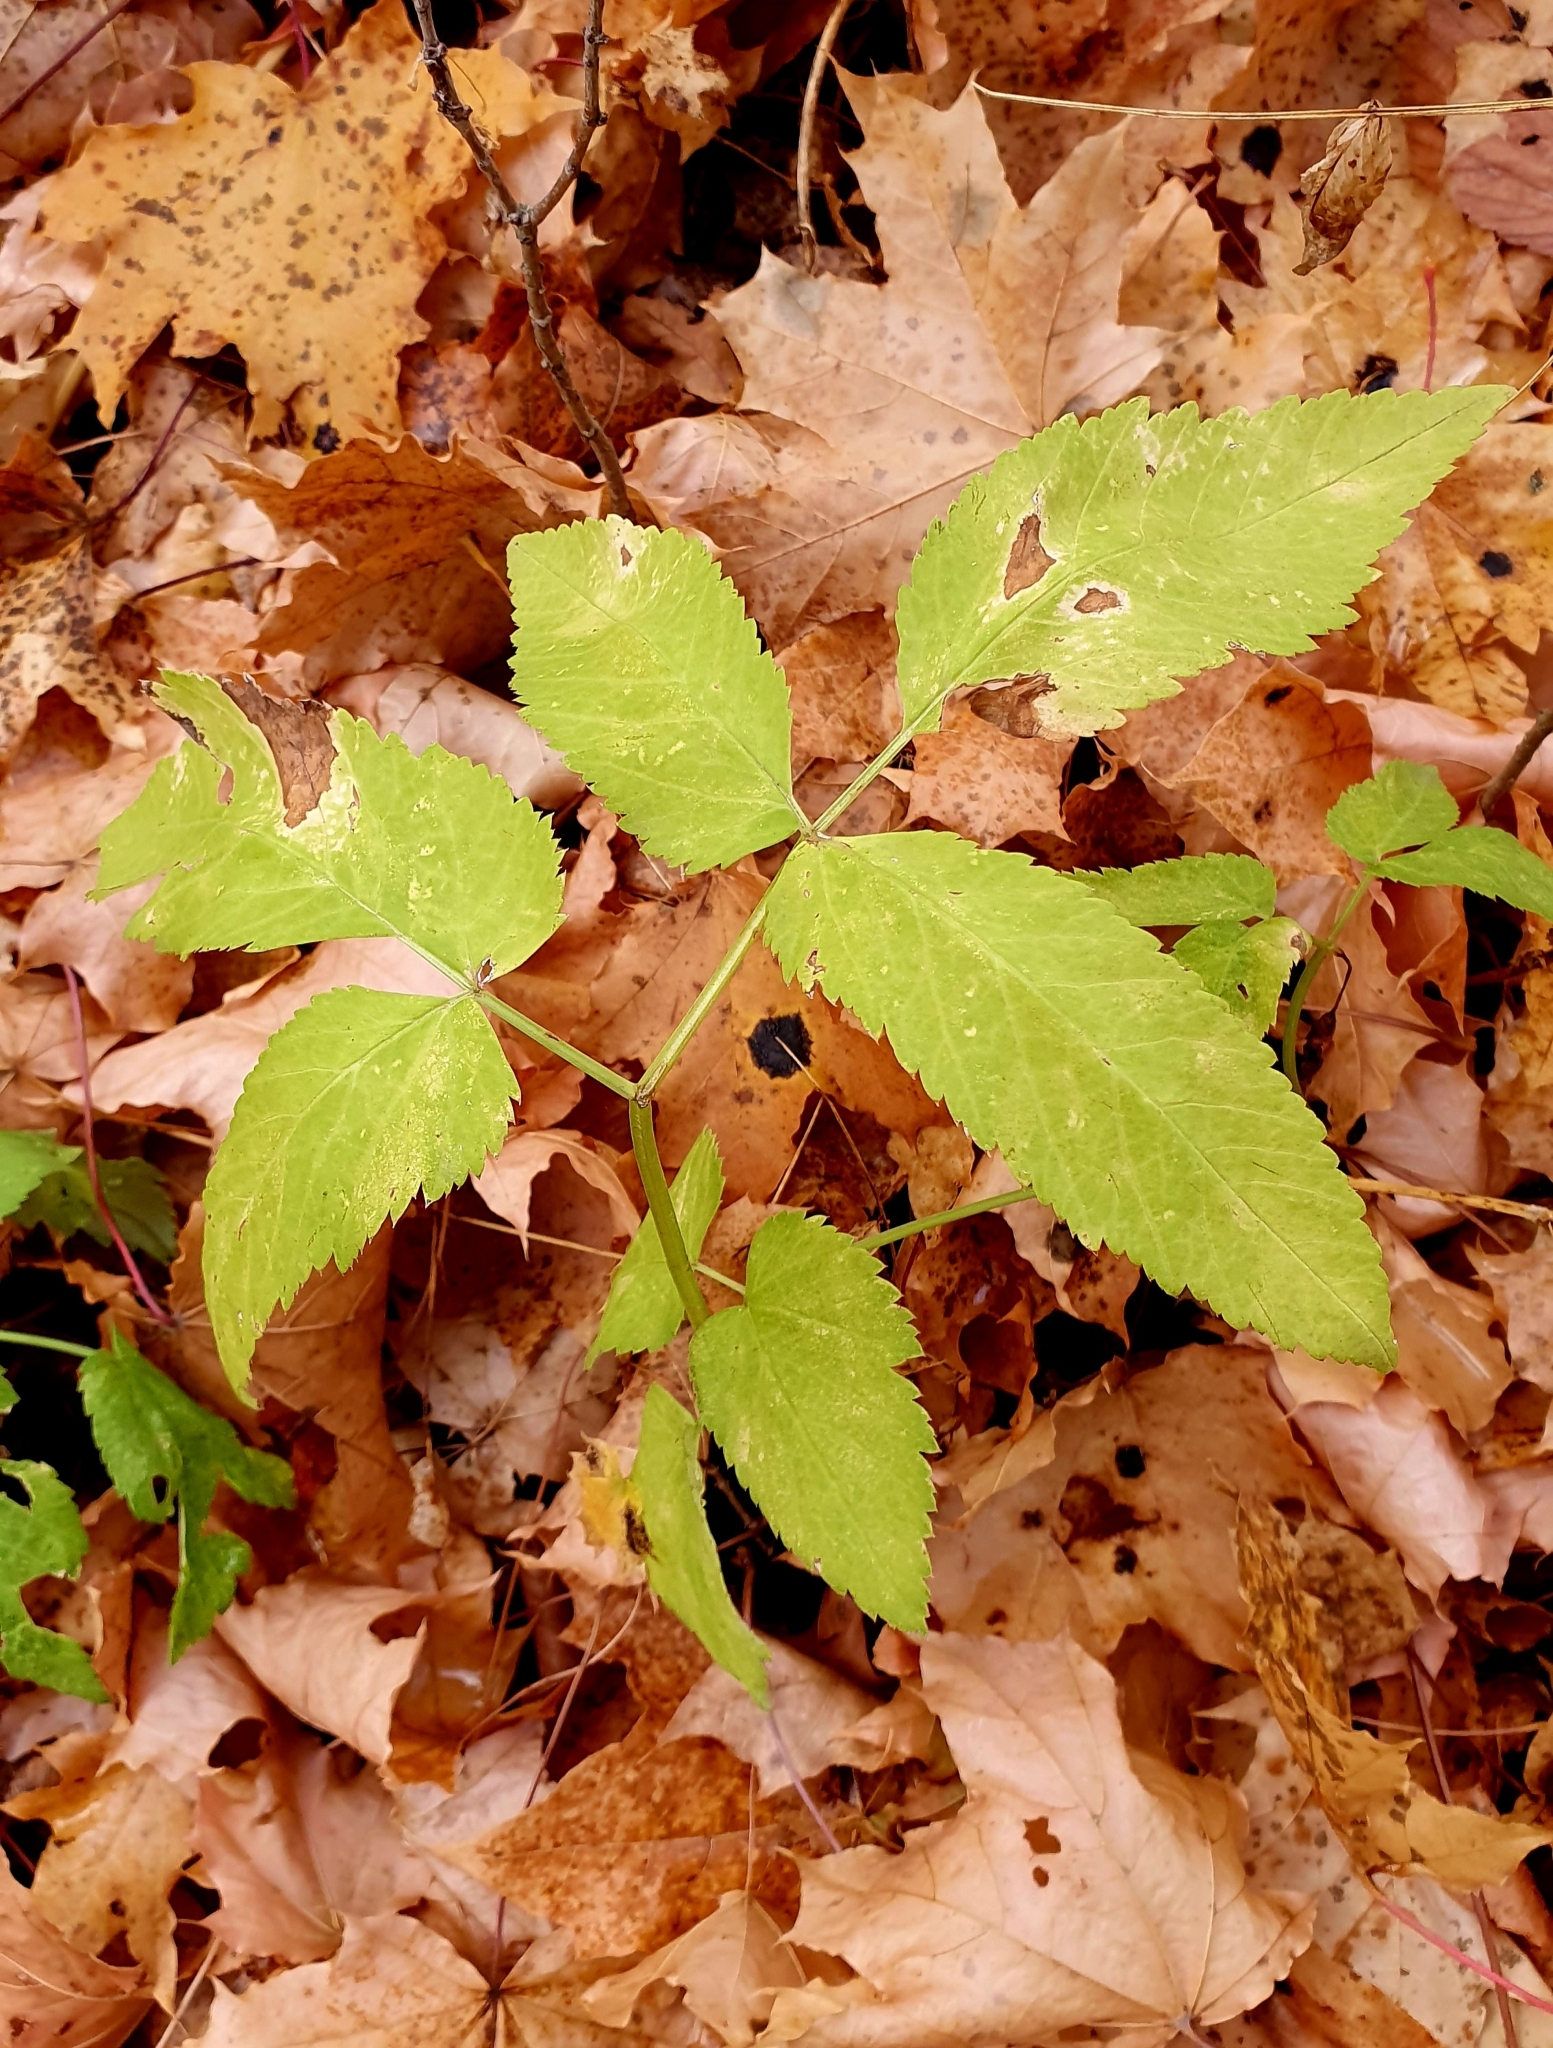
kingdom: Plantae
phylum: Tracheophyta
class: Magnoliopsida
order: Apiales
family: Apiaceae
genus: Aegopodium
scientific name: Aegopodium podagraria
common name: Ground-elder
